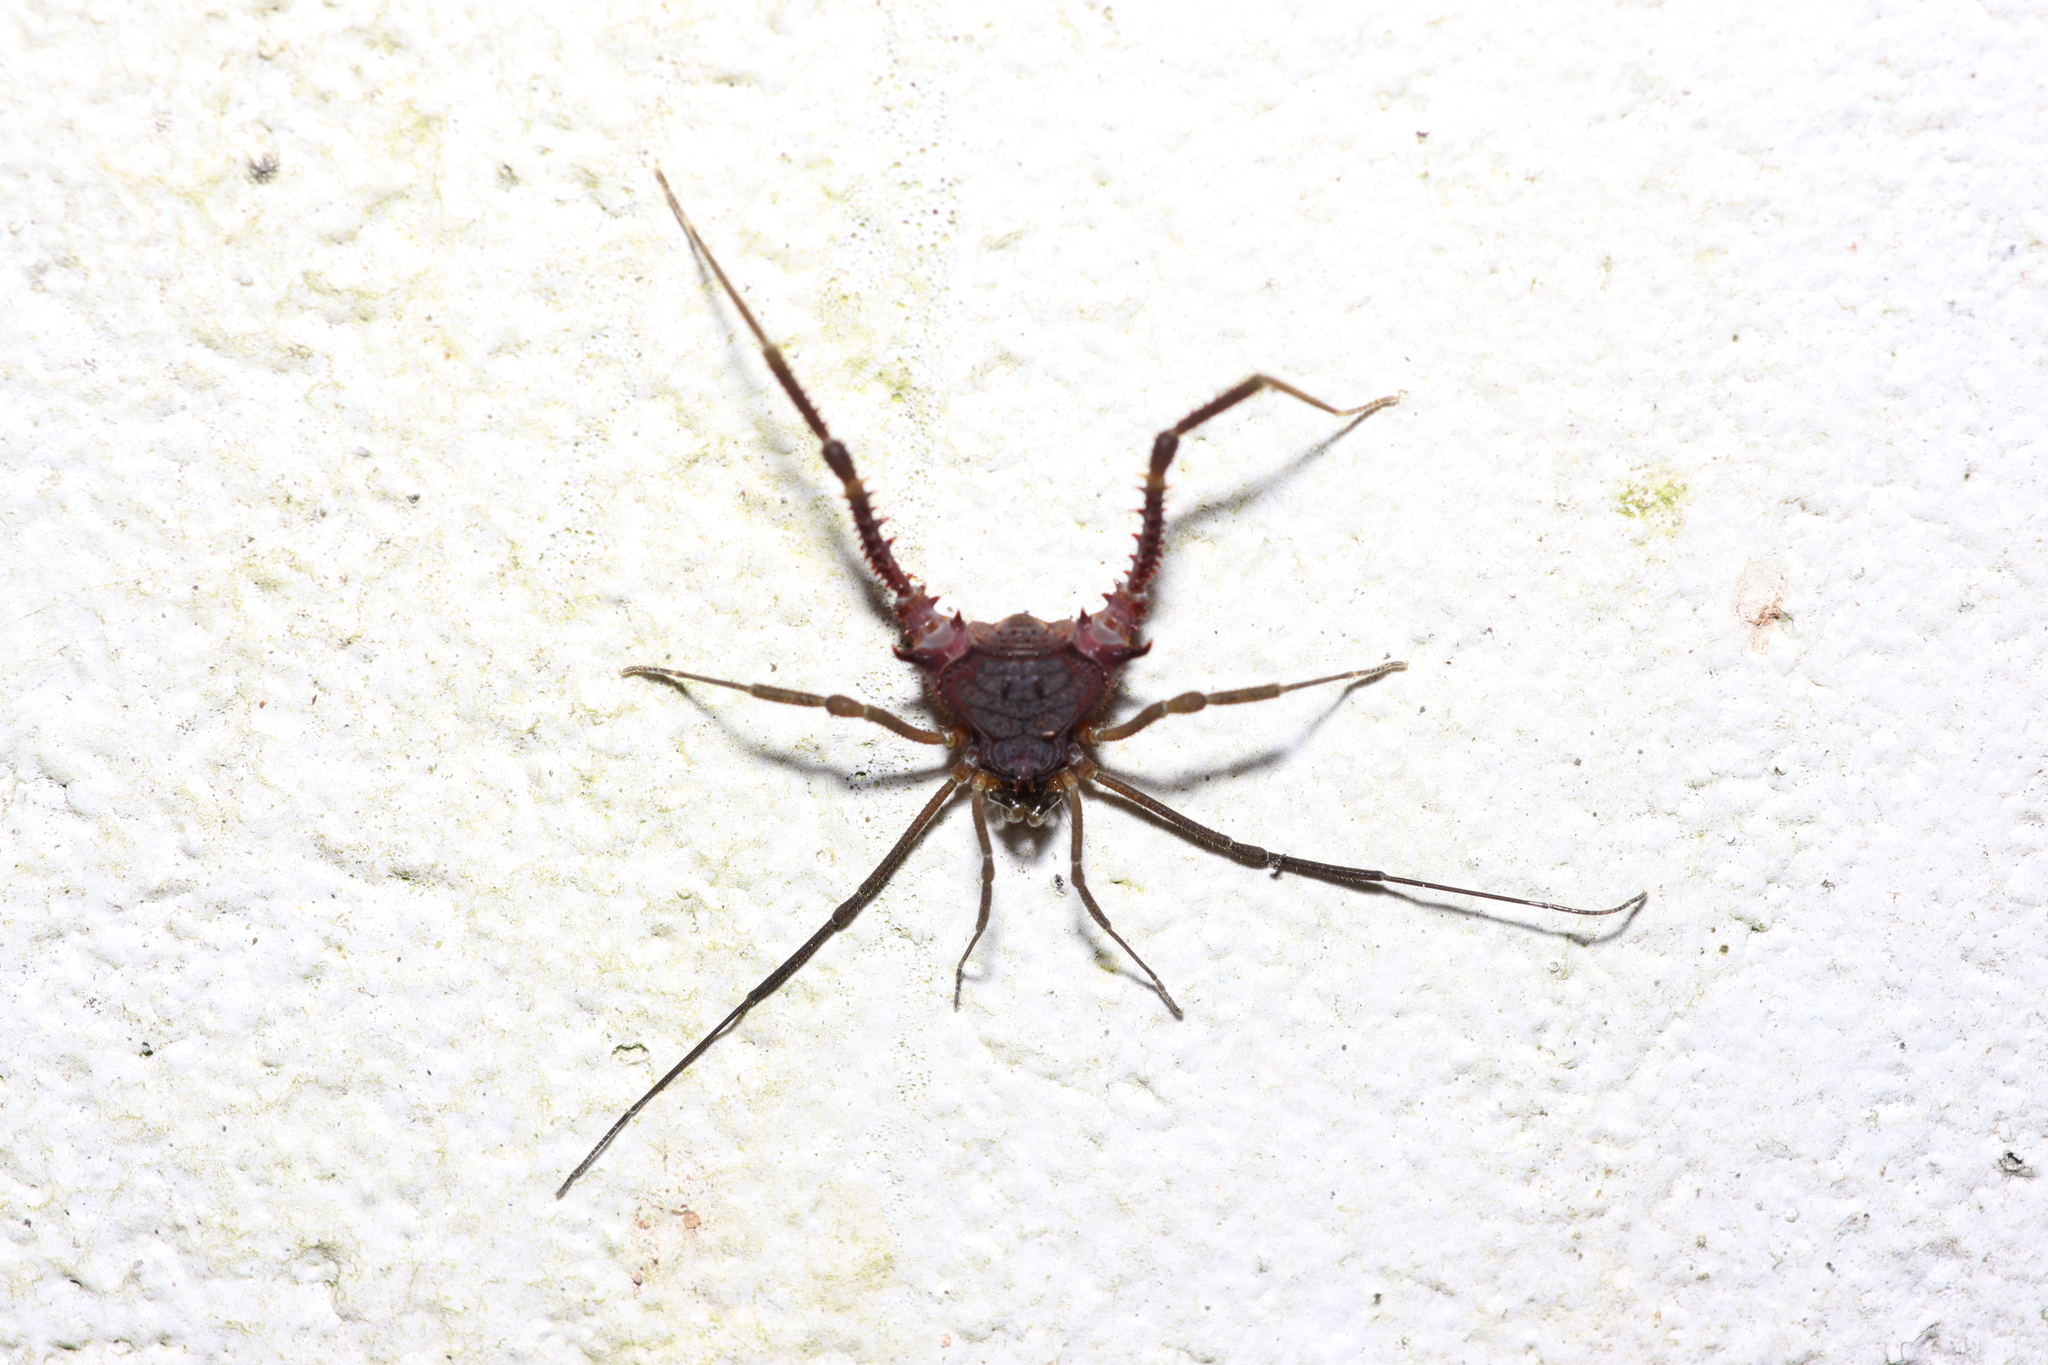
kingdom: Animalia
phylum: Arthropoda
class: Arachnida
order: Opiliones
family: Gonyleptidae
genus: Pachylobos
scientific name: Pachylobos littoralis
